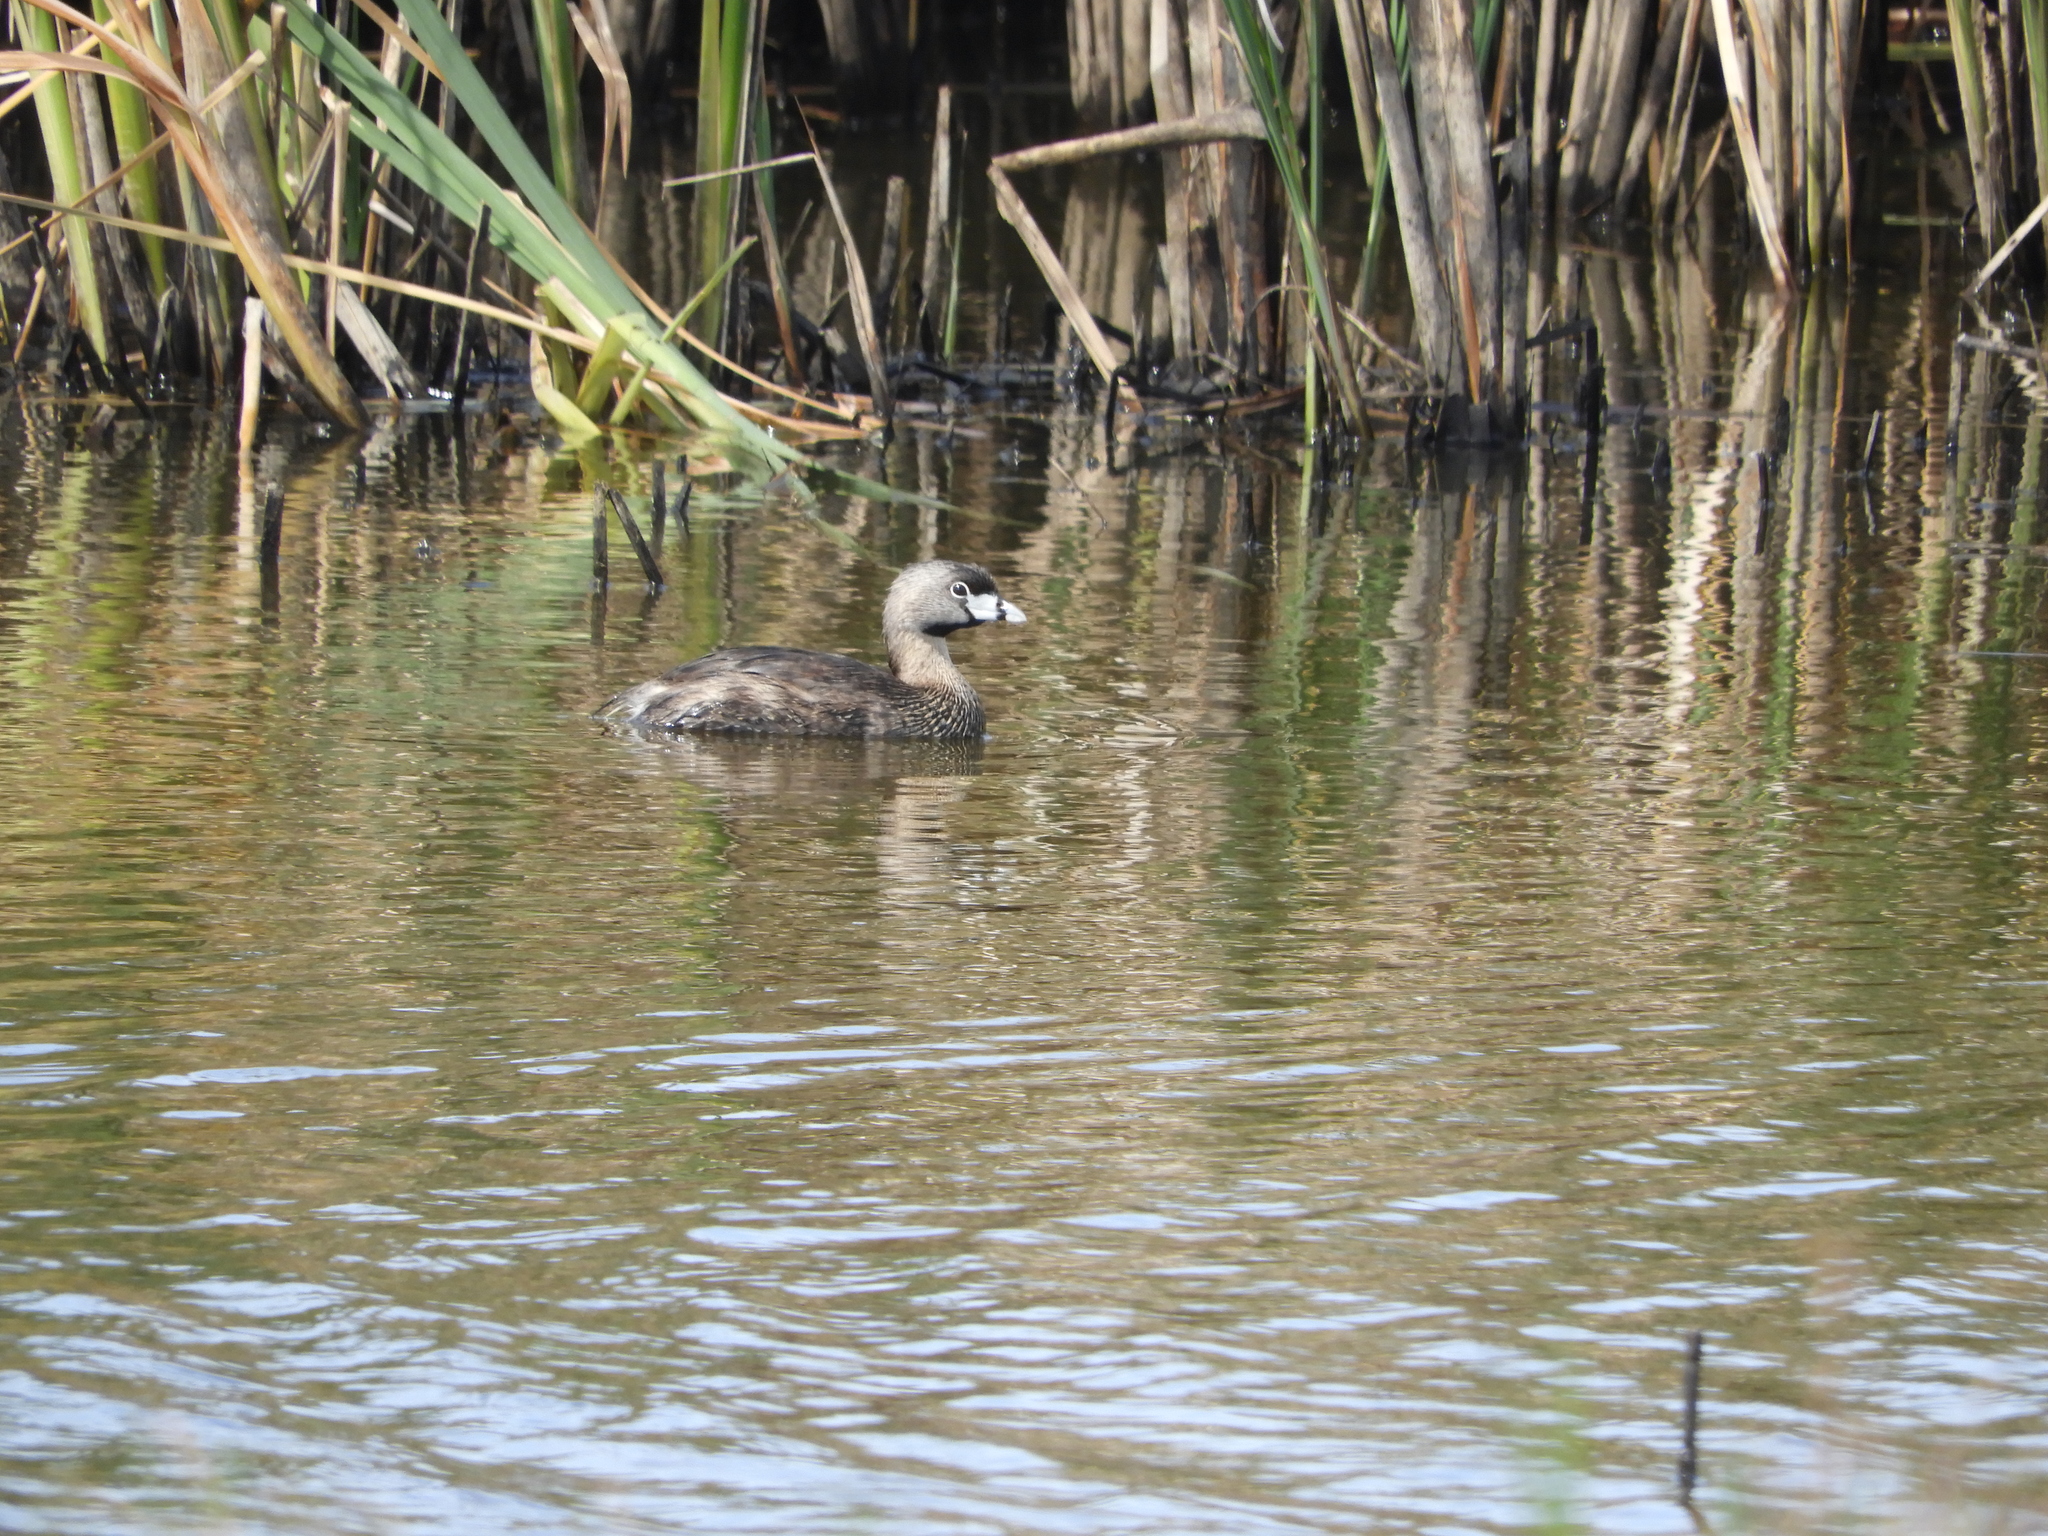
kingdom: Animalia
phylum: Chordata
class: Aves
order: Podicipediformes
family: Podicipedidae
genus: Podilymbus
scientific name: Podilymbus podiceps
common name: Pied-billed grebe
